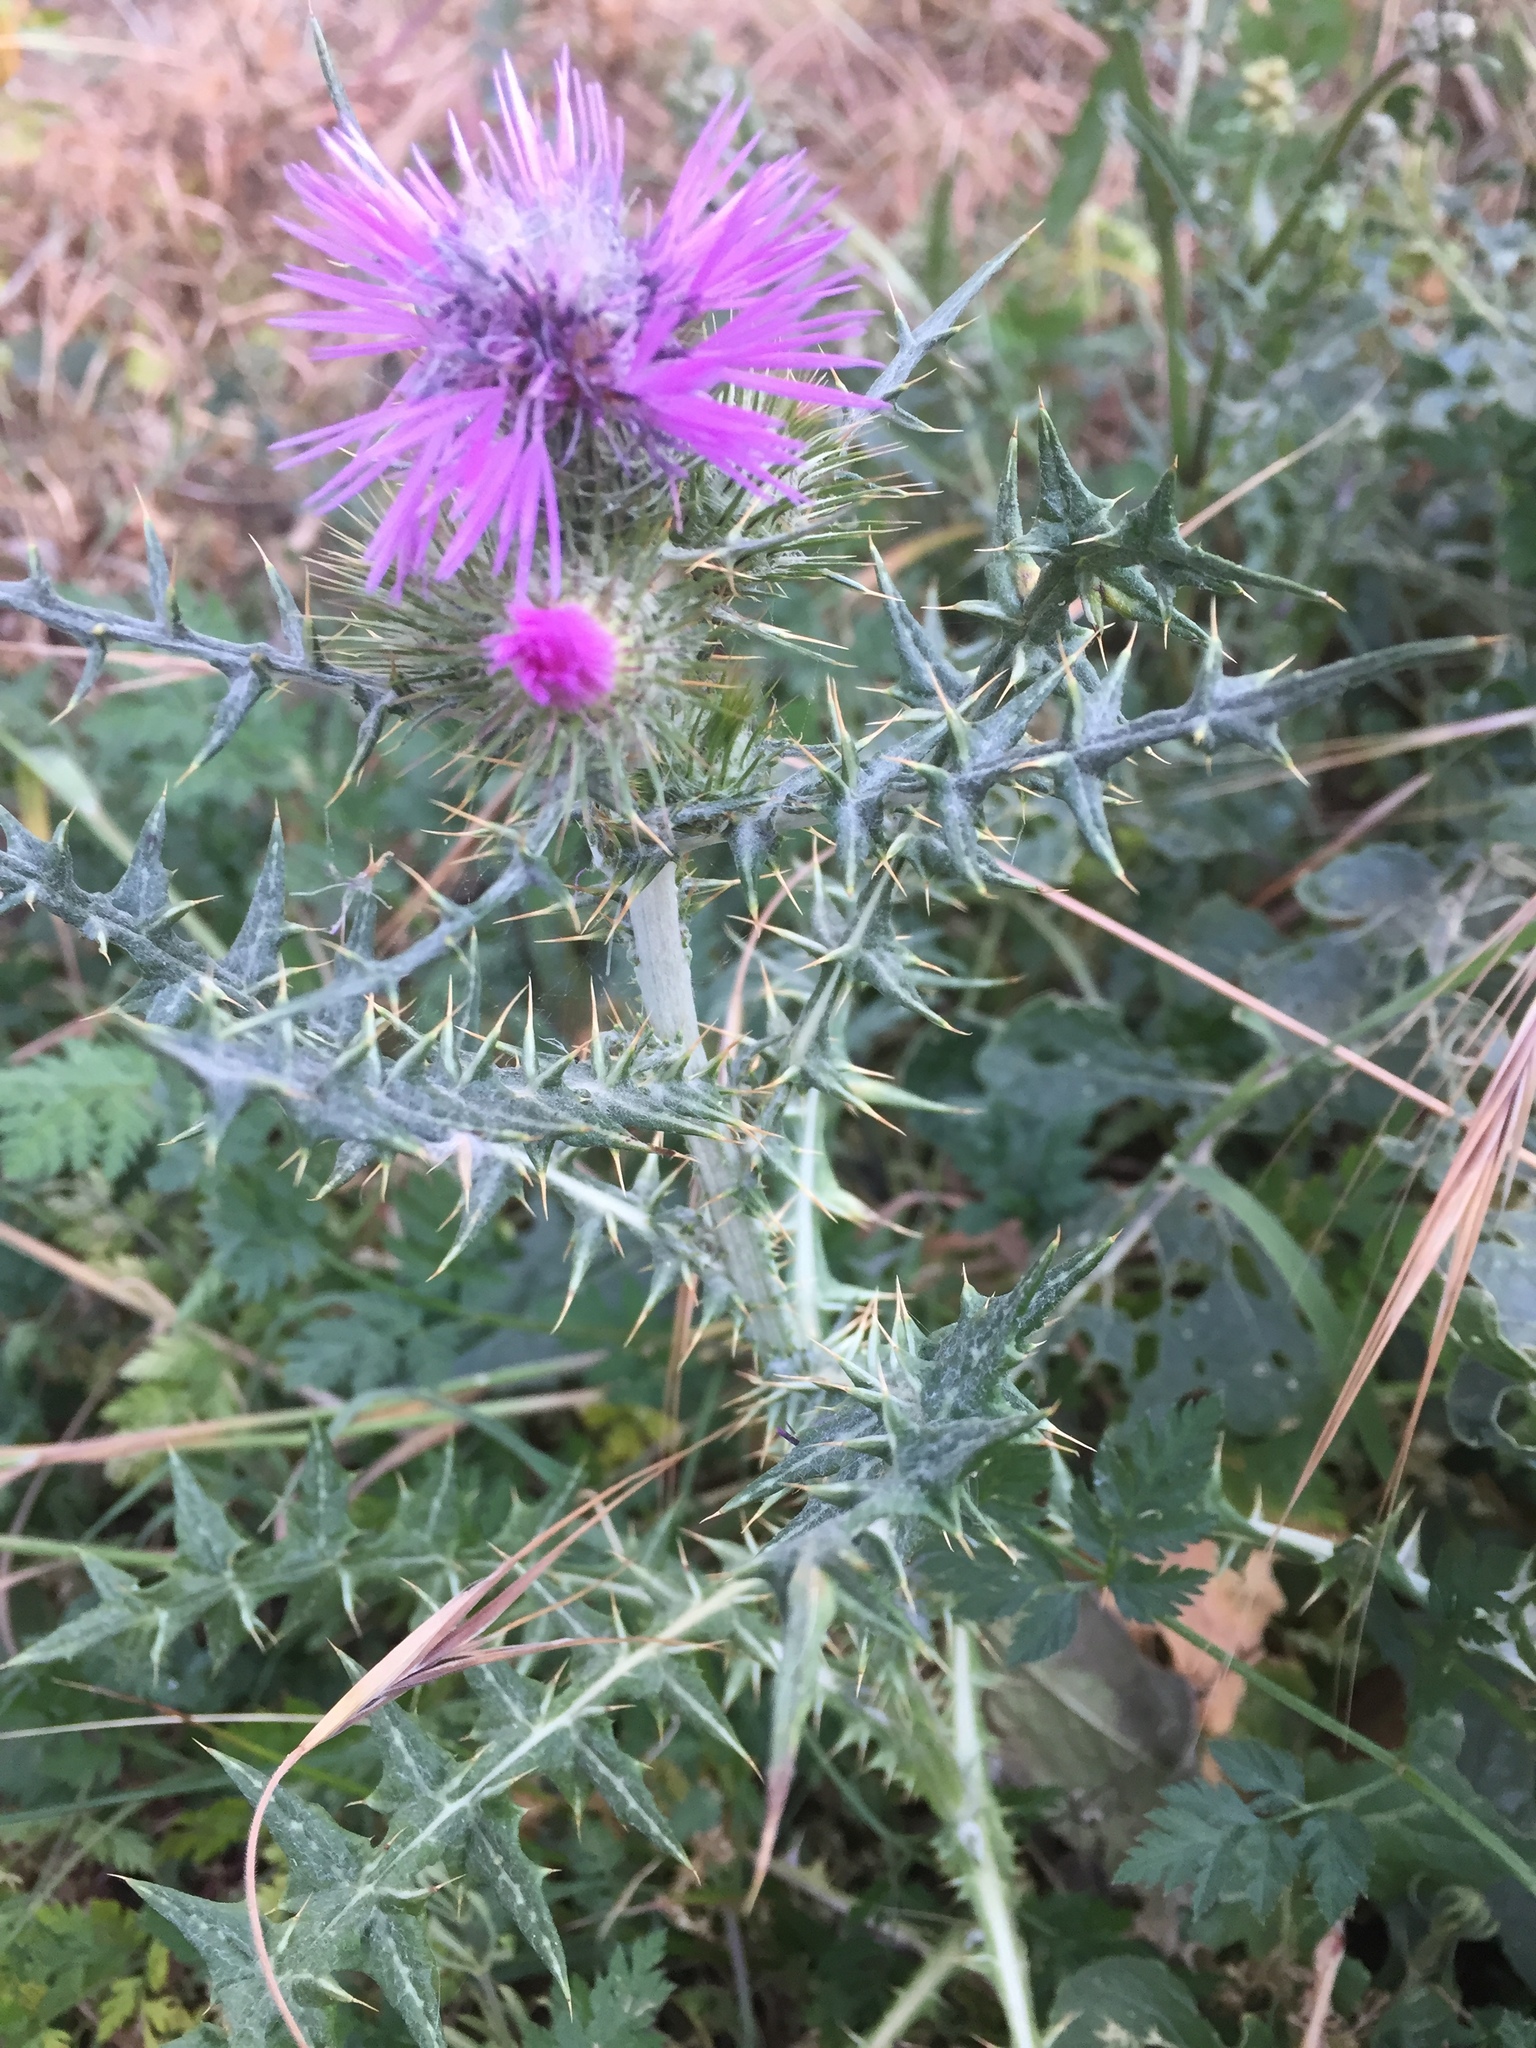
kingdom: Plantae
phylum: Tracheophyta
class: Magnoliopsida
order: Asterales
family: Asteraceae
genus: Galactites
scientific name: Galactites tomentosa
